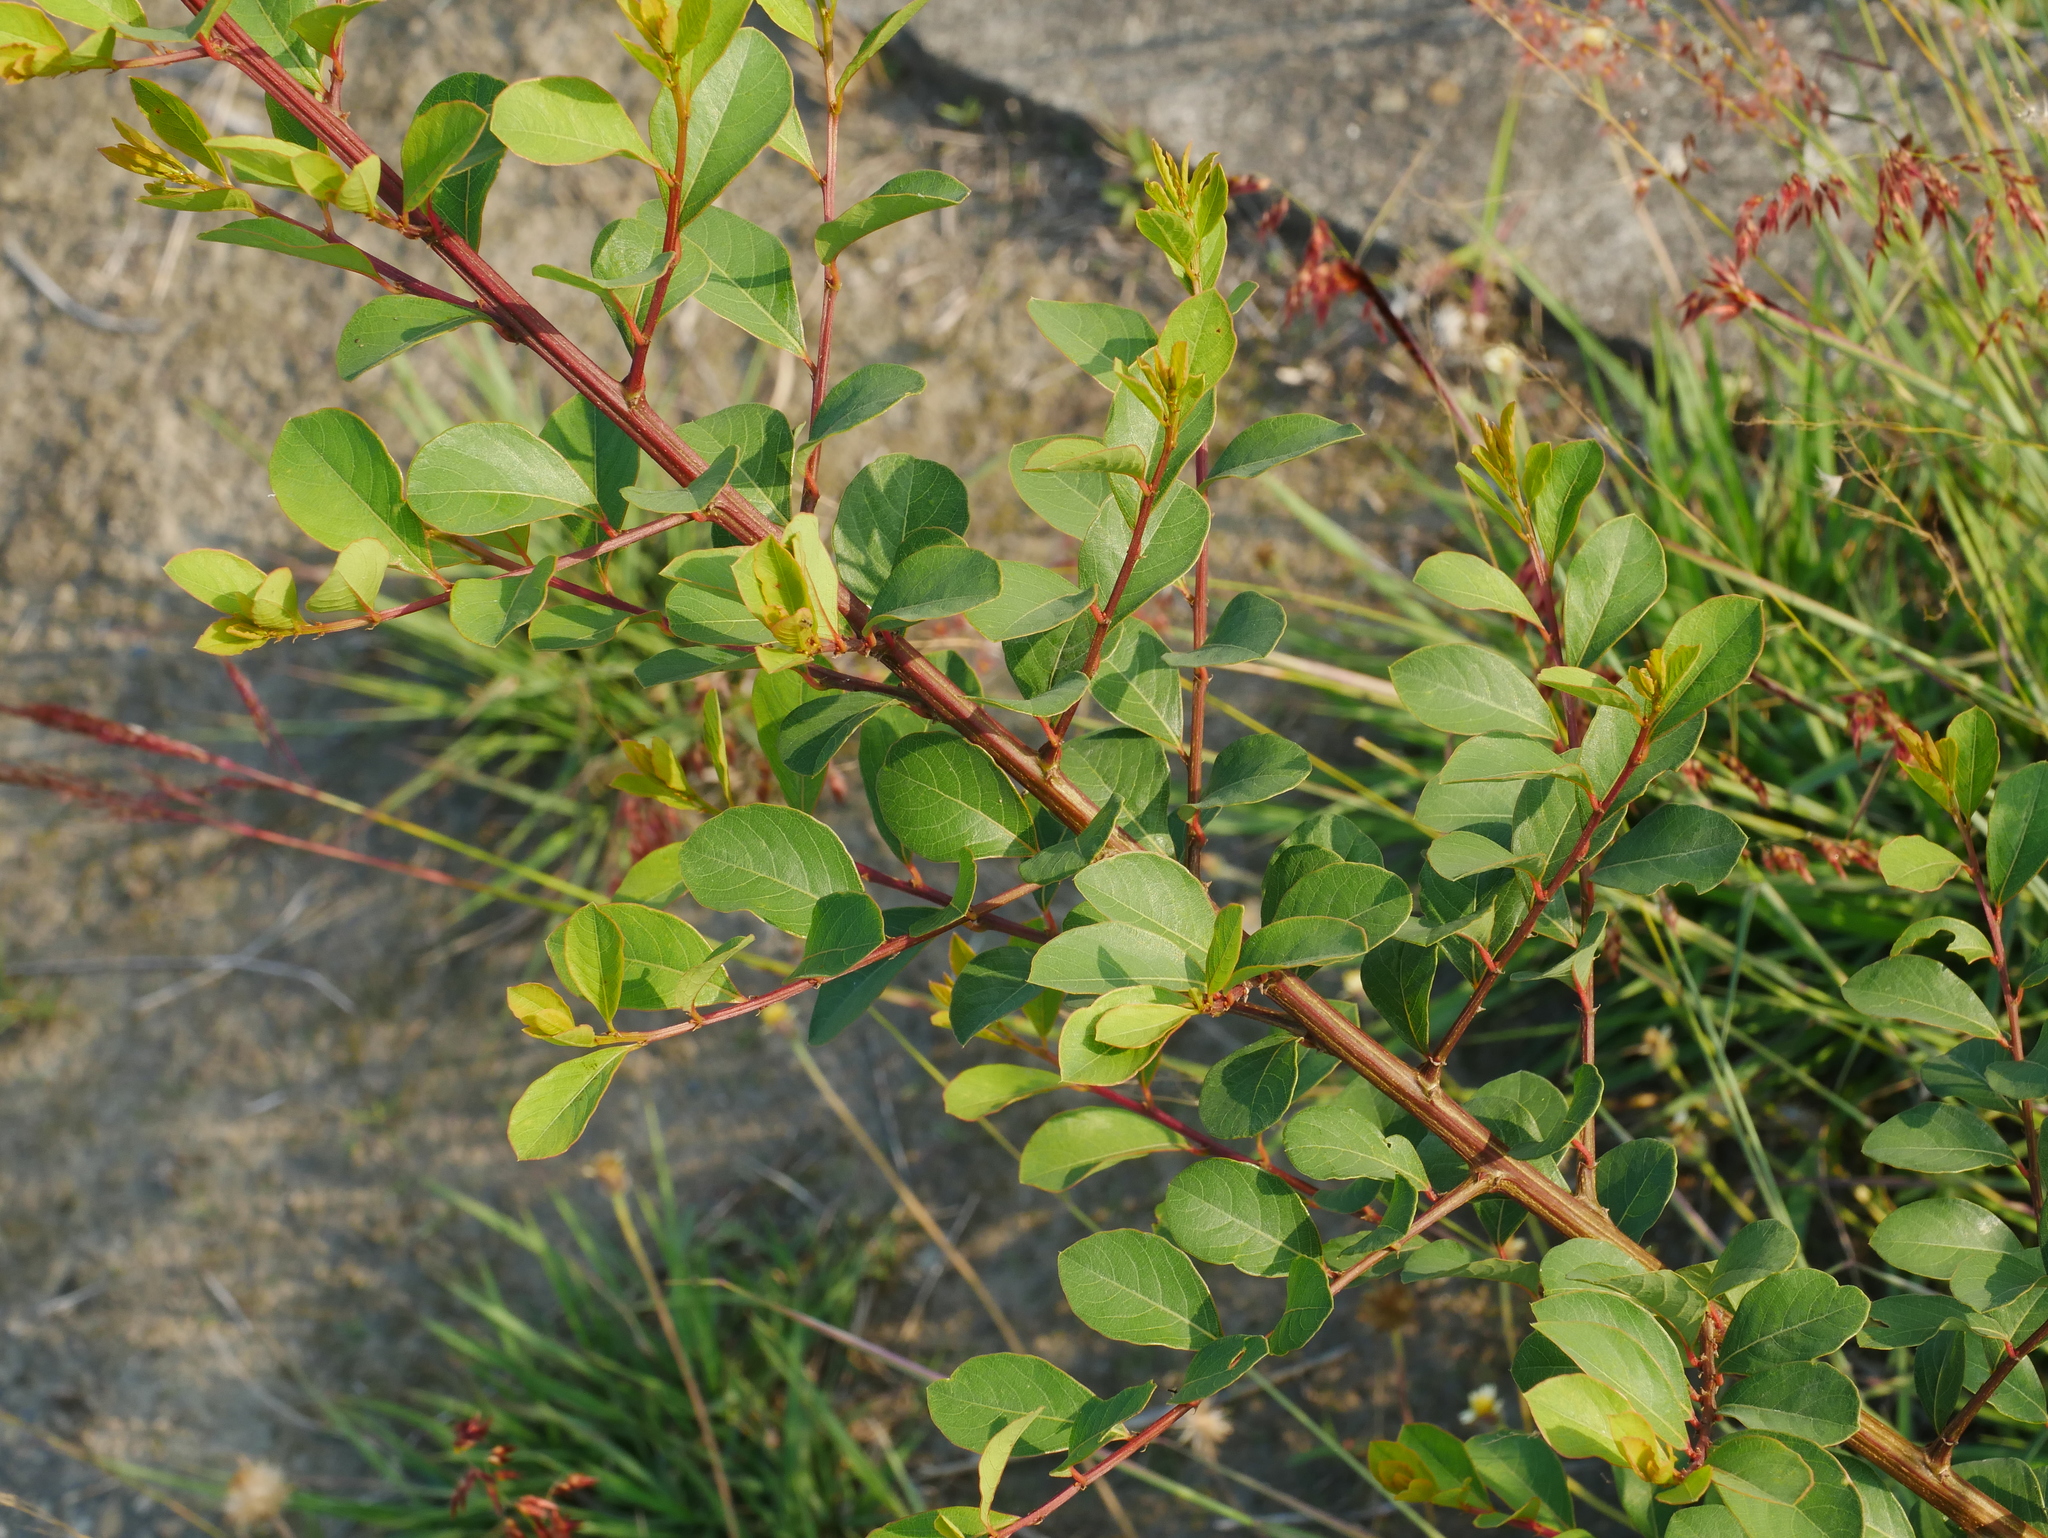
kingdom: Plantae
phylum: Tracheophyta
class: Magnoliopsida
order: Malpighiales
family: Phyllanthaceae
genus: Flueggea
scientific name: Flueggea virosa
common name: Common bushweed
